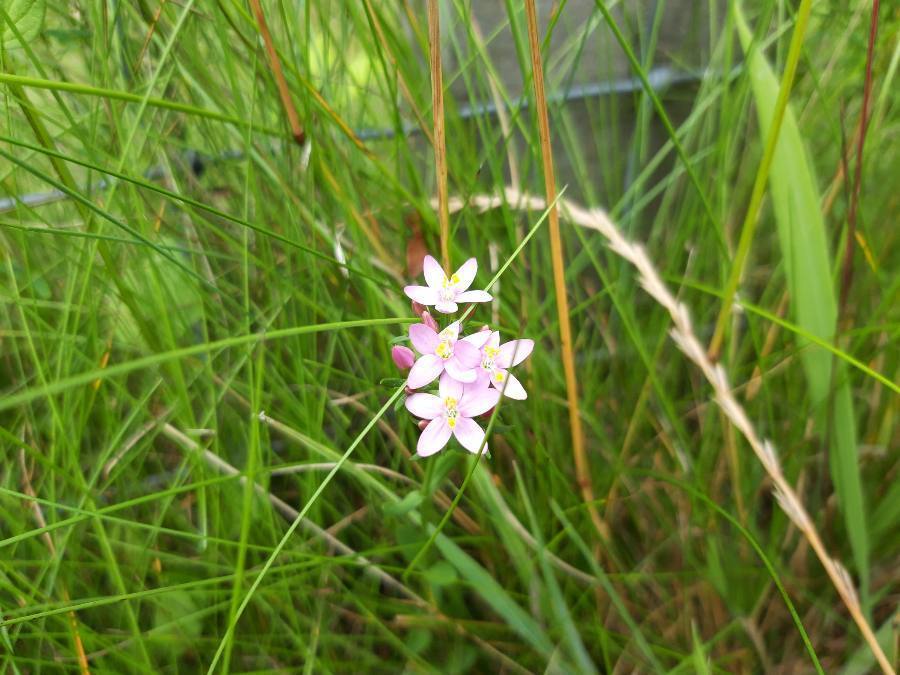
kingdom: Plantae
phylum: Tracheophyta
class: Magnoliopsida
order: Gentianales
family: Gentianaceae
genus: Centaurium
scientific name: Centaurium erythraea
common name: Common centaury
